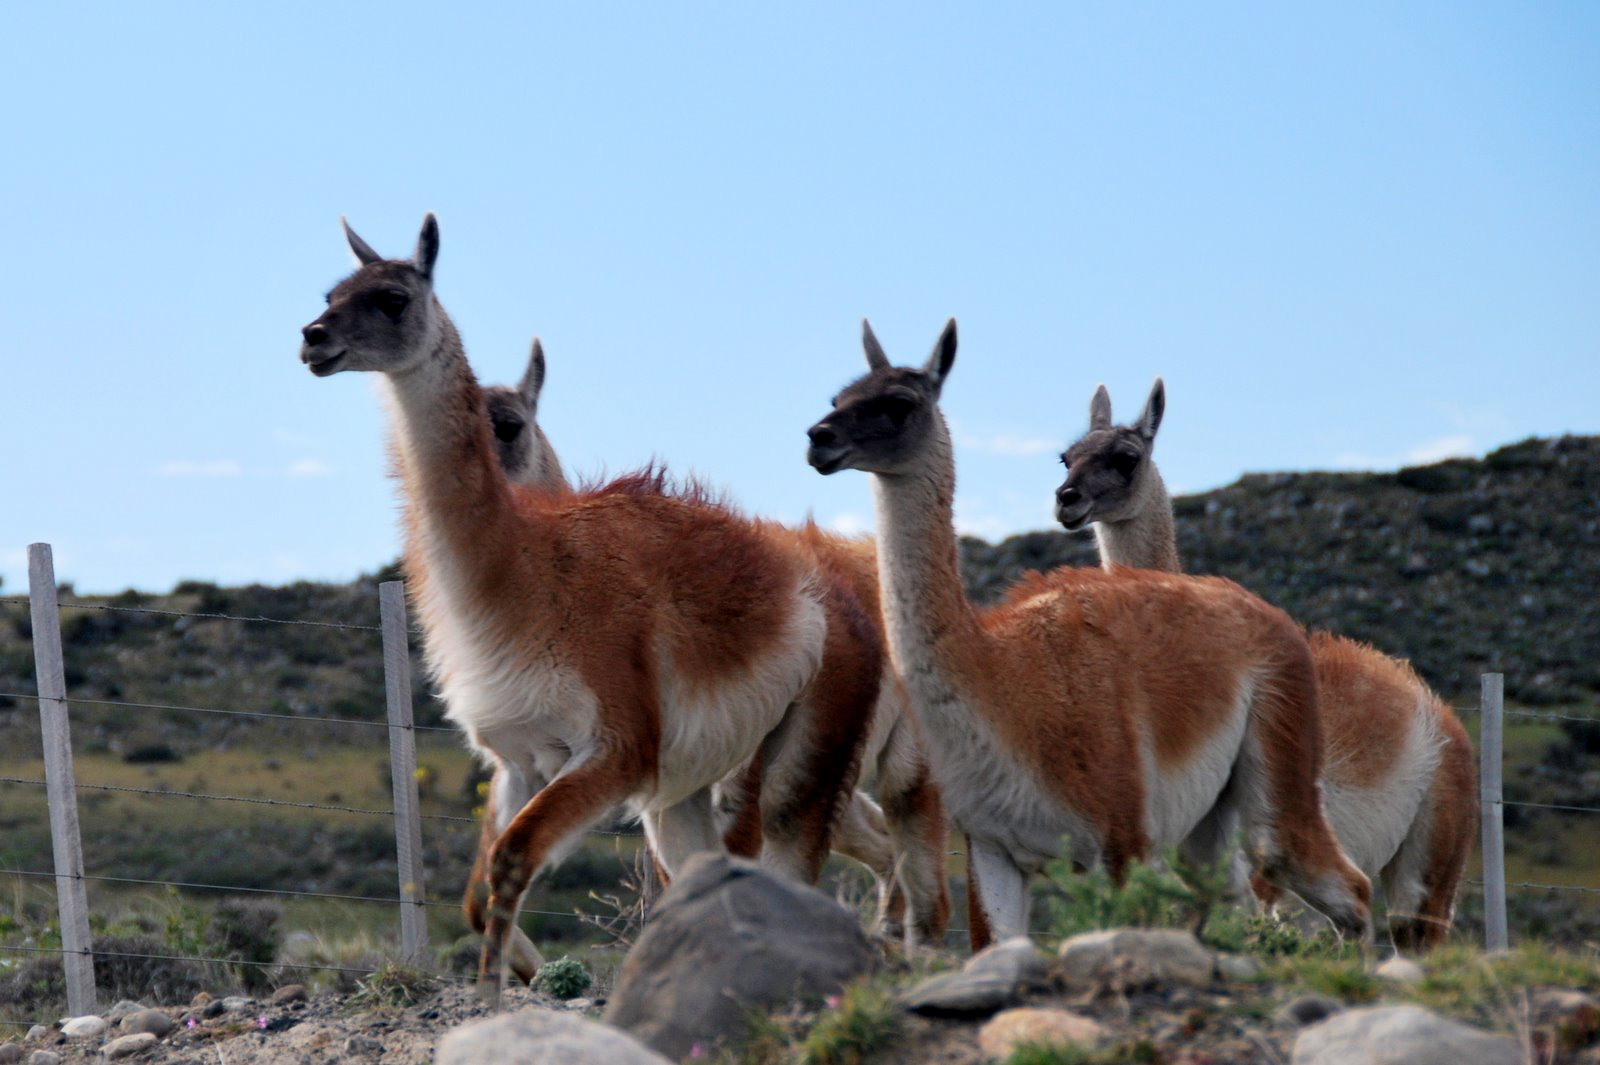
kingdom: Animalia
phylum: Chordata
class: Mammalia
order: Artiodactyla
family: Camelidae
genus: Lama
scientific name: Lama glama
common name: Llama
